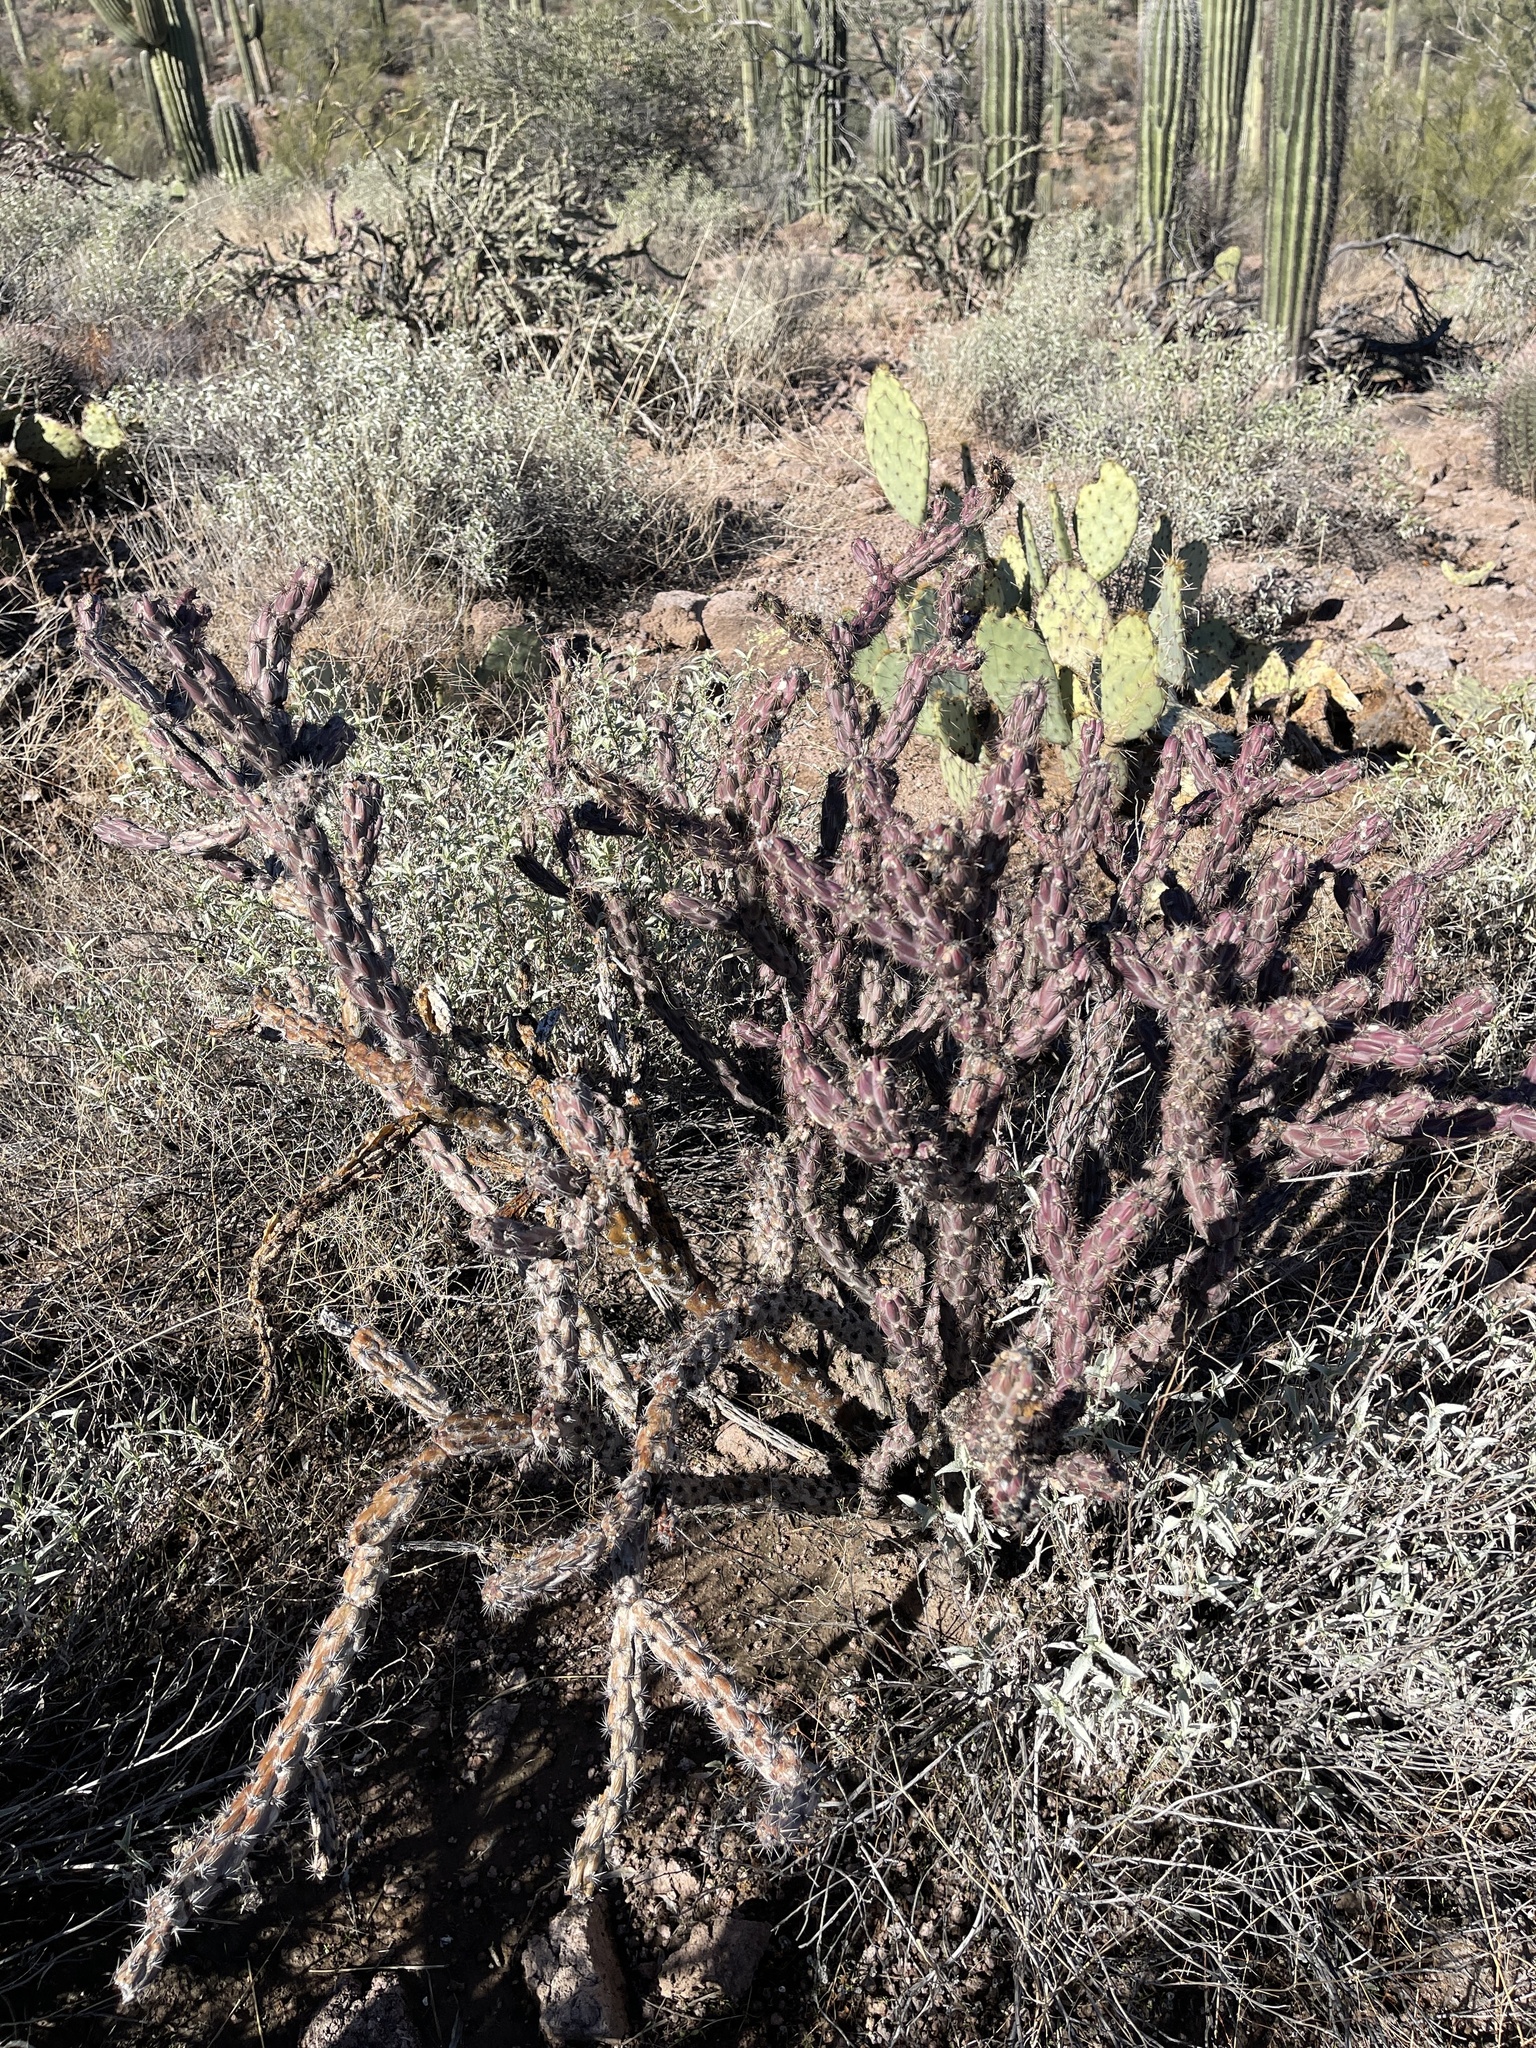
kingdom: Plantae
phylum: Tracheophyta
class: Magnoliopsida
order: Caryophyllales
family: Cactaceae
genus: Cylindropuntia
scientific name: Cylindropuntia thurberi
